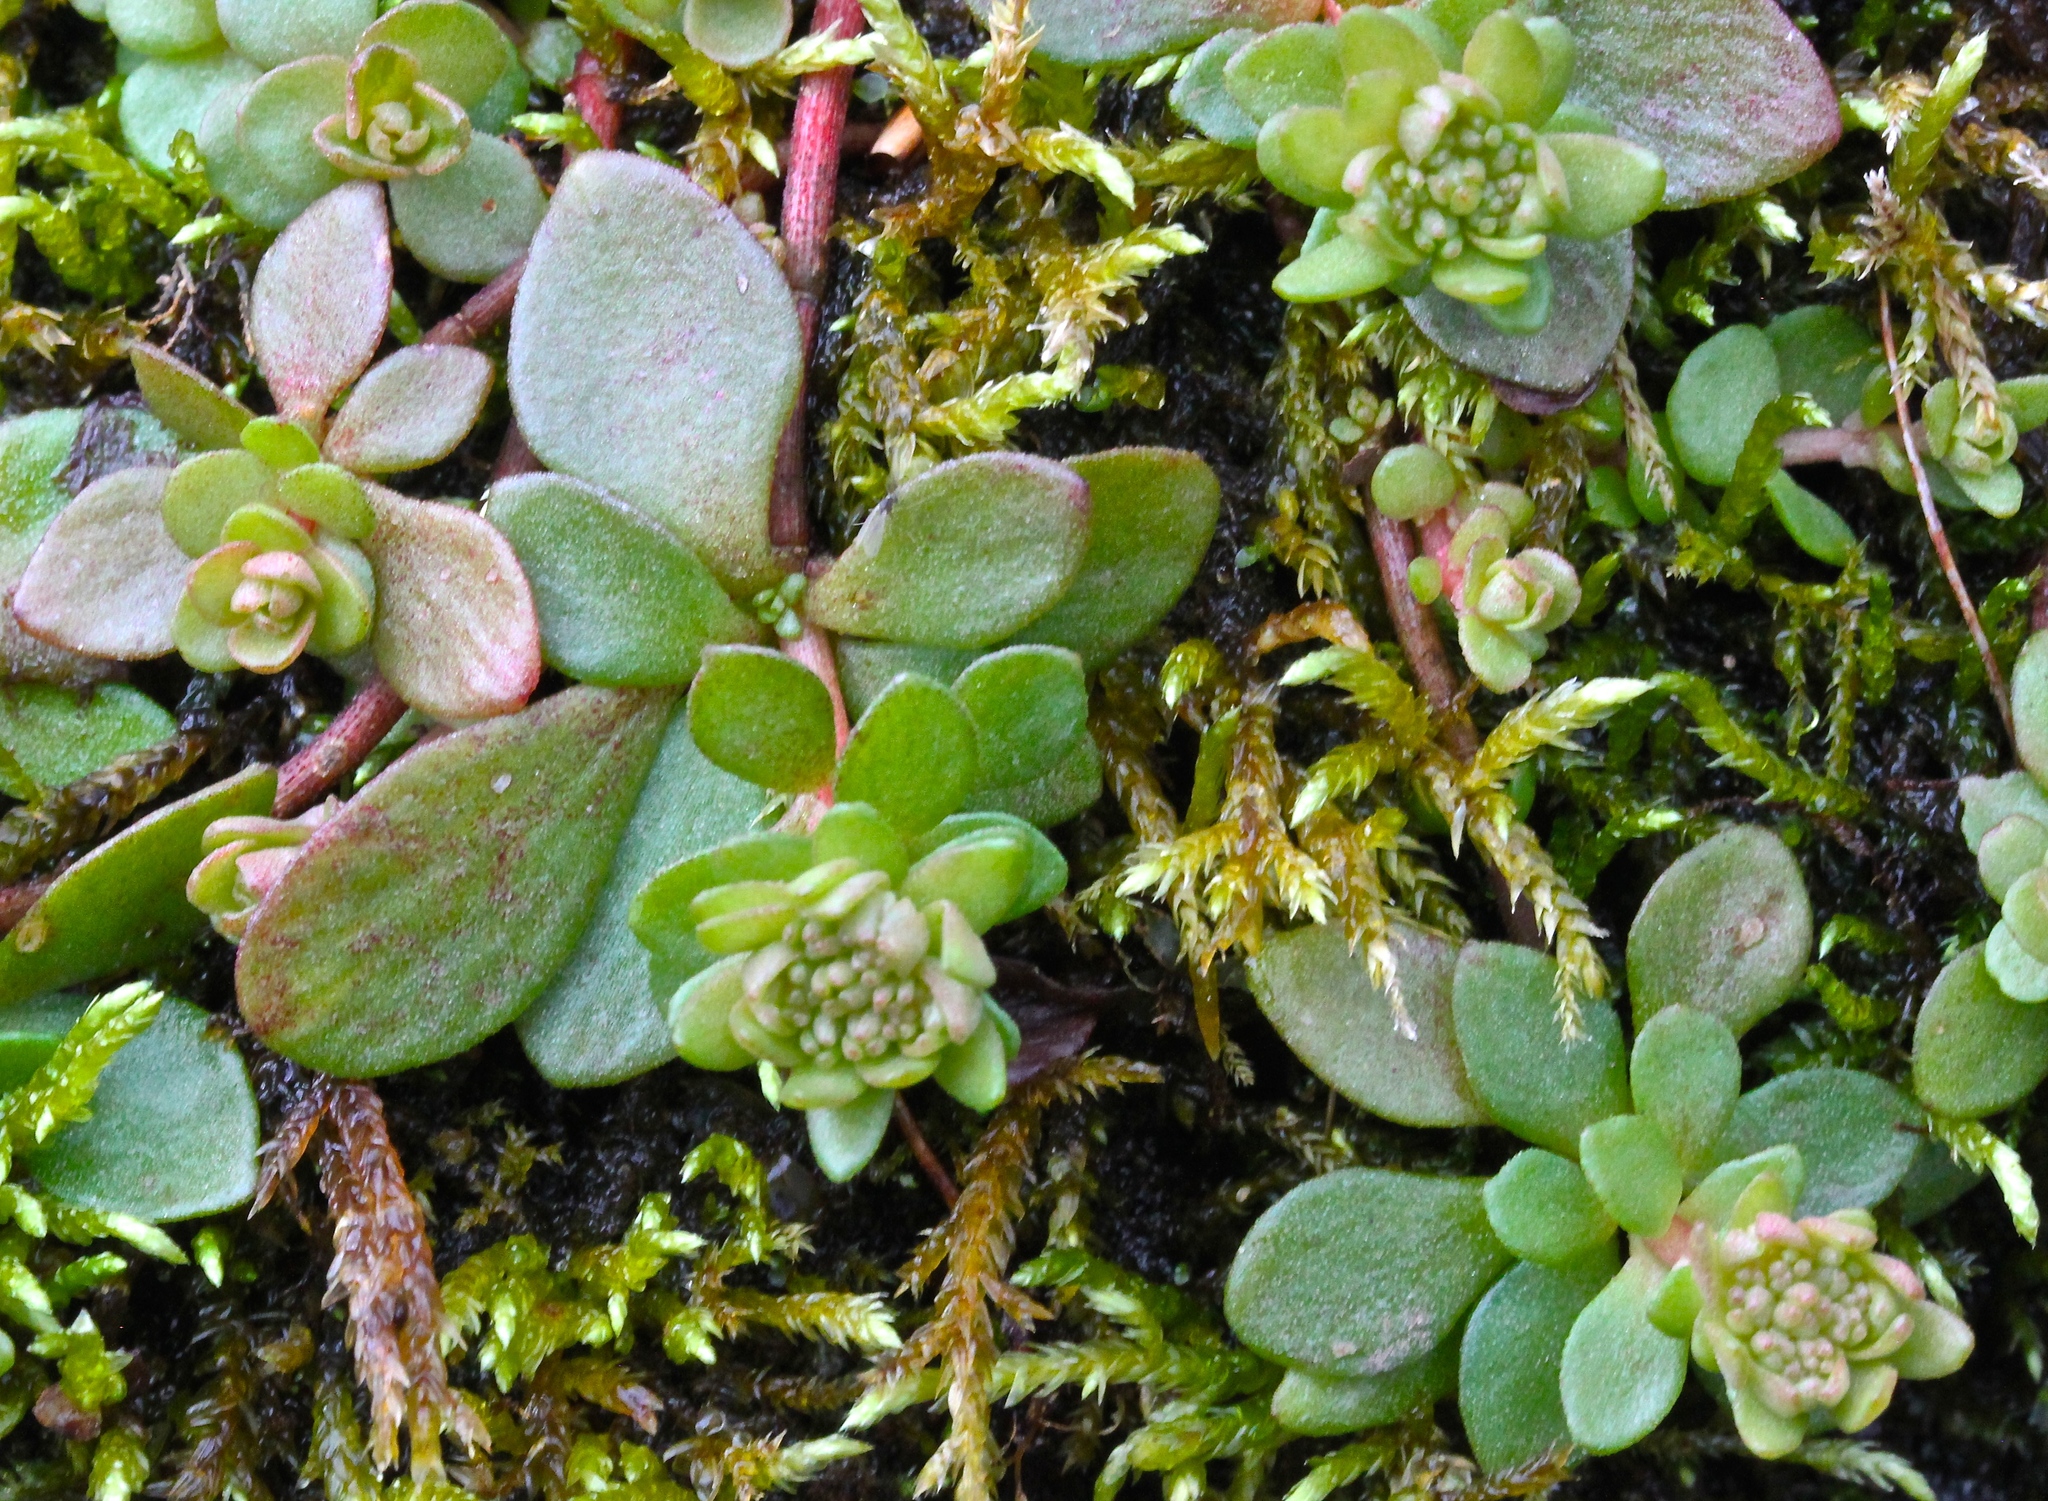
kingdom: Plantae
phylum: Tracheophyta
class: Magnoliopsida
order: Saxifragales
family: Crassulaceae
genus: Sedum
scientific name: Sedum ternatum
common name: Wild stonecrop
